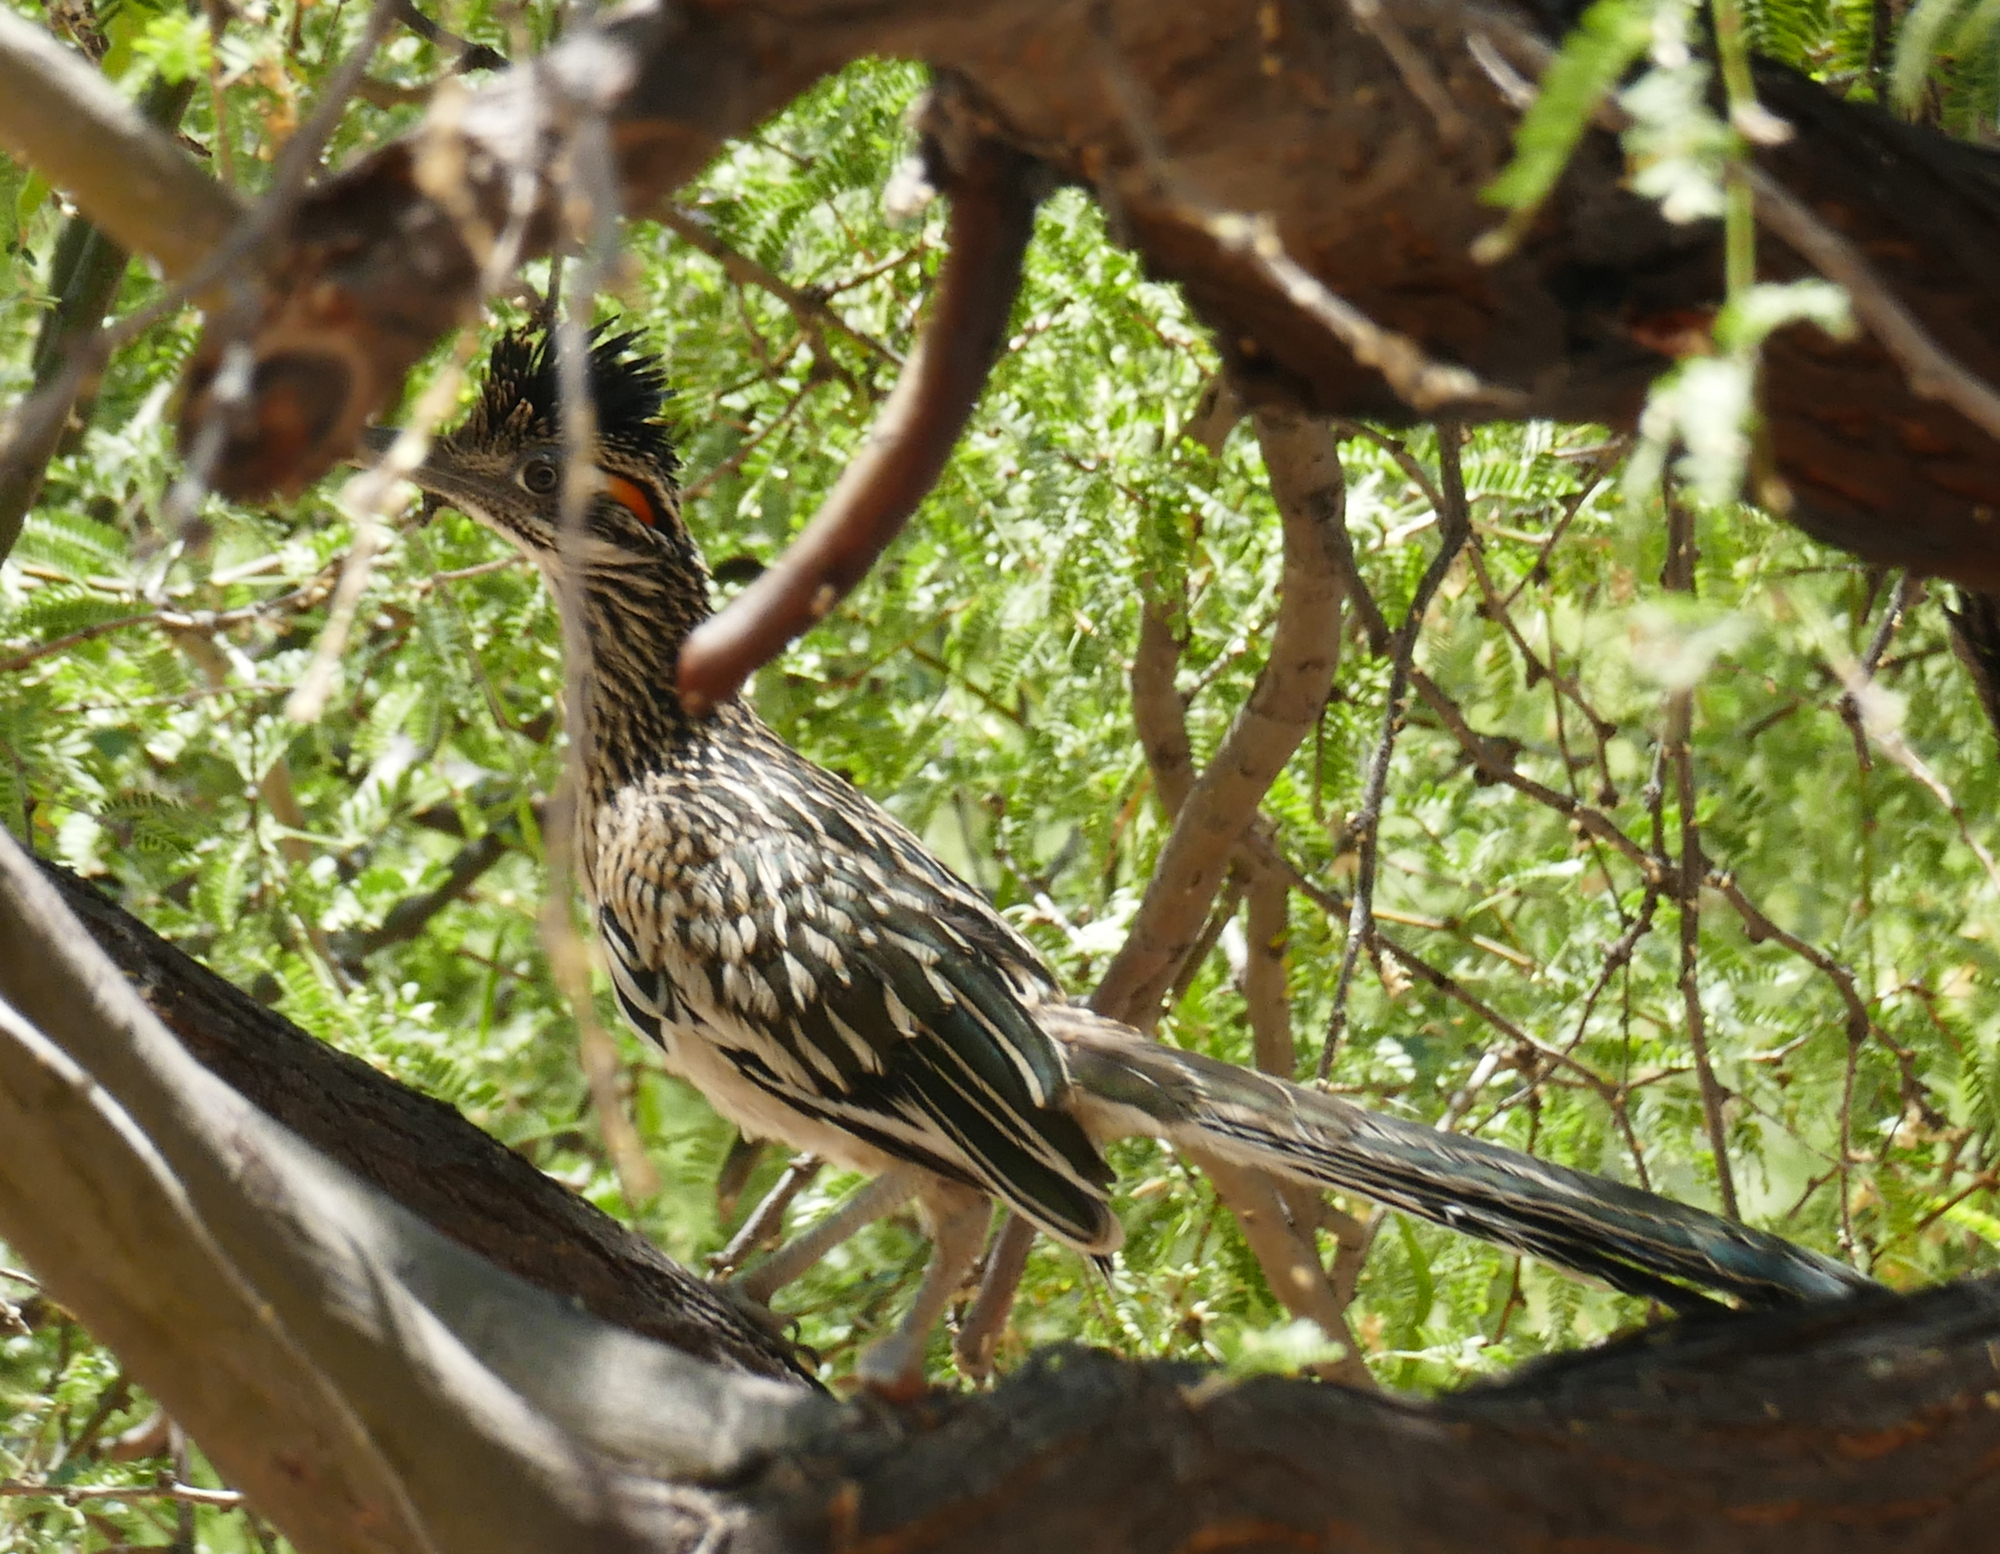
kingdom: Animalia
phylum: Chordata
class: Aves
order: Cuculiformes
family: Cuculidae
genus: Geococcyx
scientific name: Geococcyx californianus
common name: Greater roadrunner
